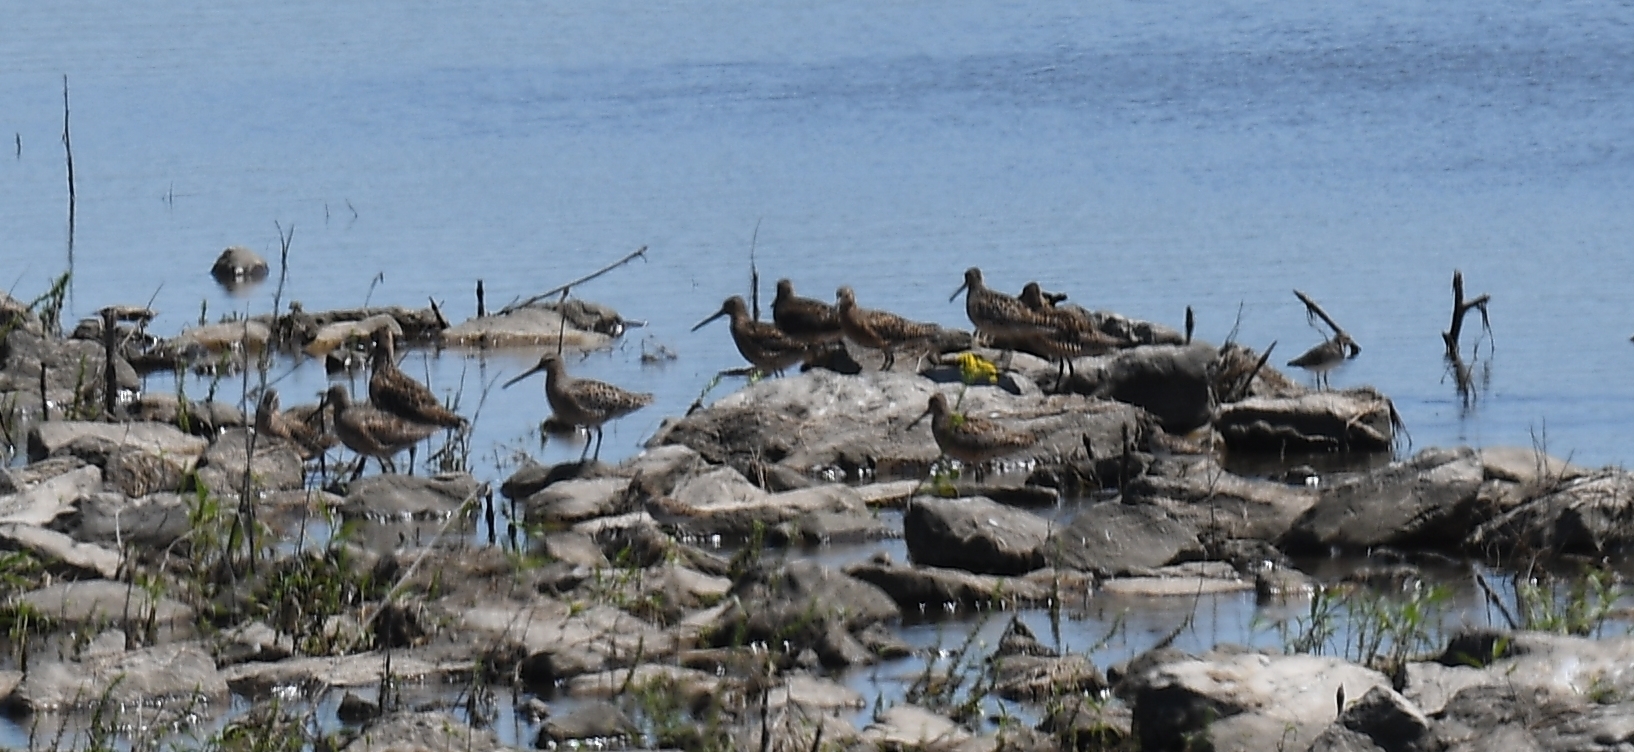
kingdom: Animalia
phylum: Chordata
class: Aves
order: Charadriiformes
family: Scolopacidae
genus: Limnodromus
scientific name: Limnodromus griseus
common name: Short-billed dowitcher
